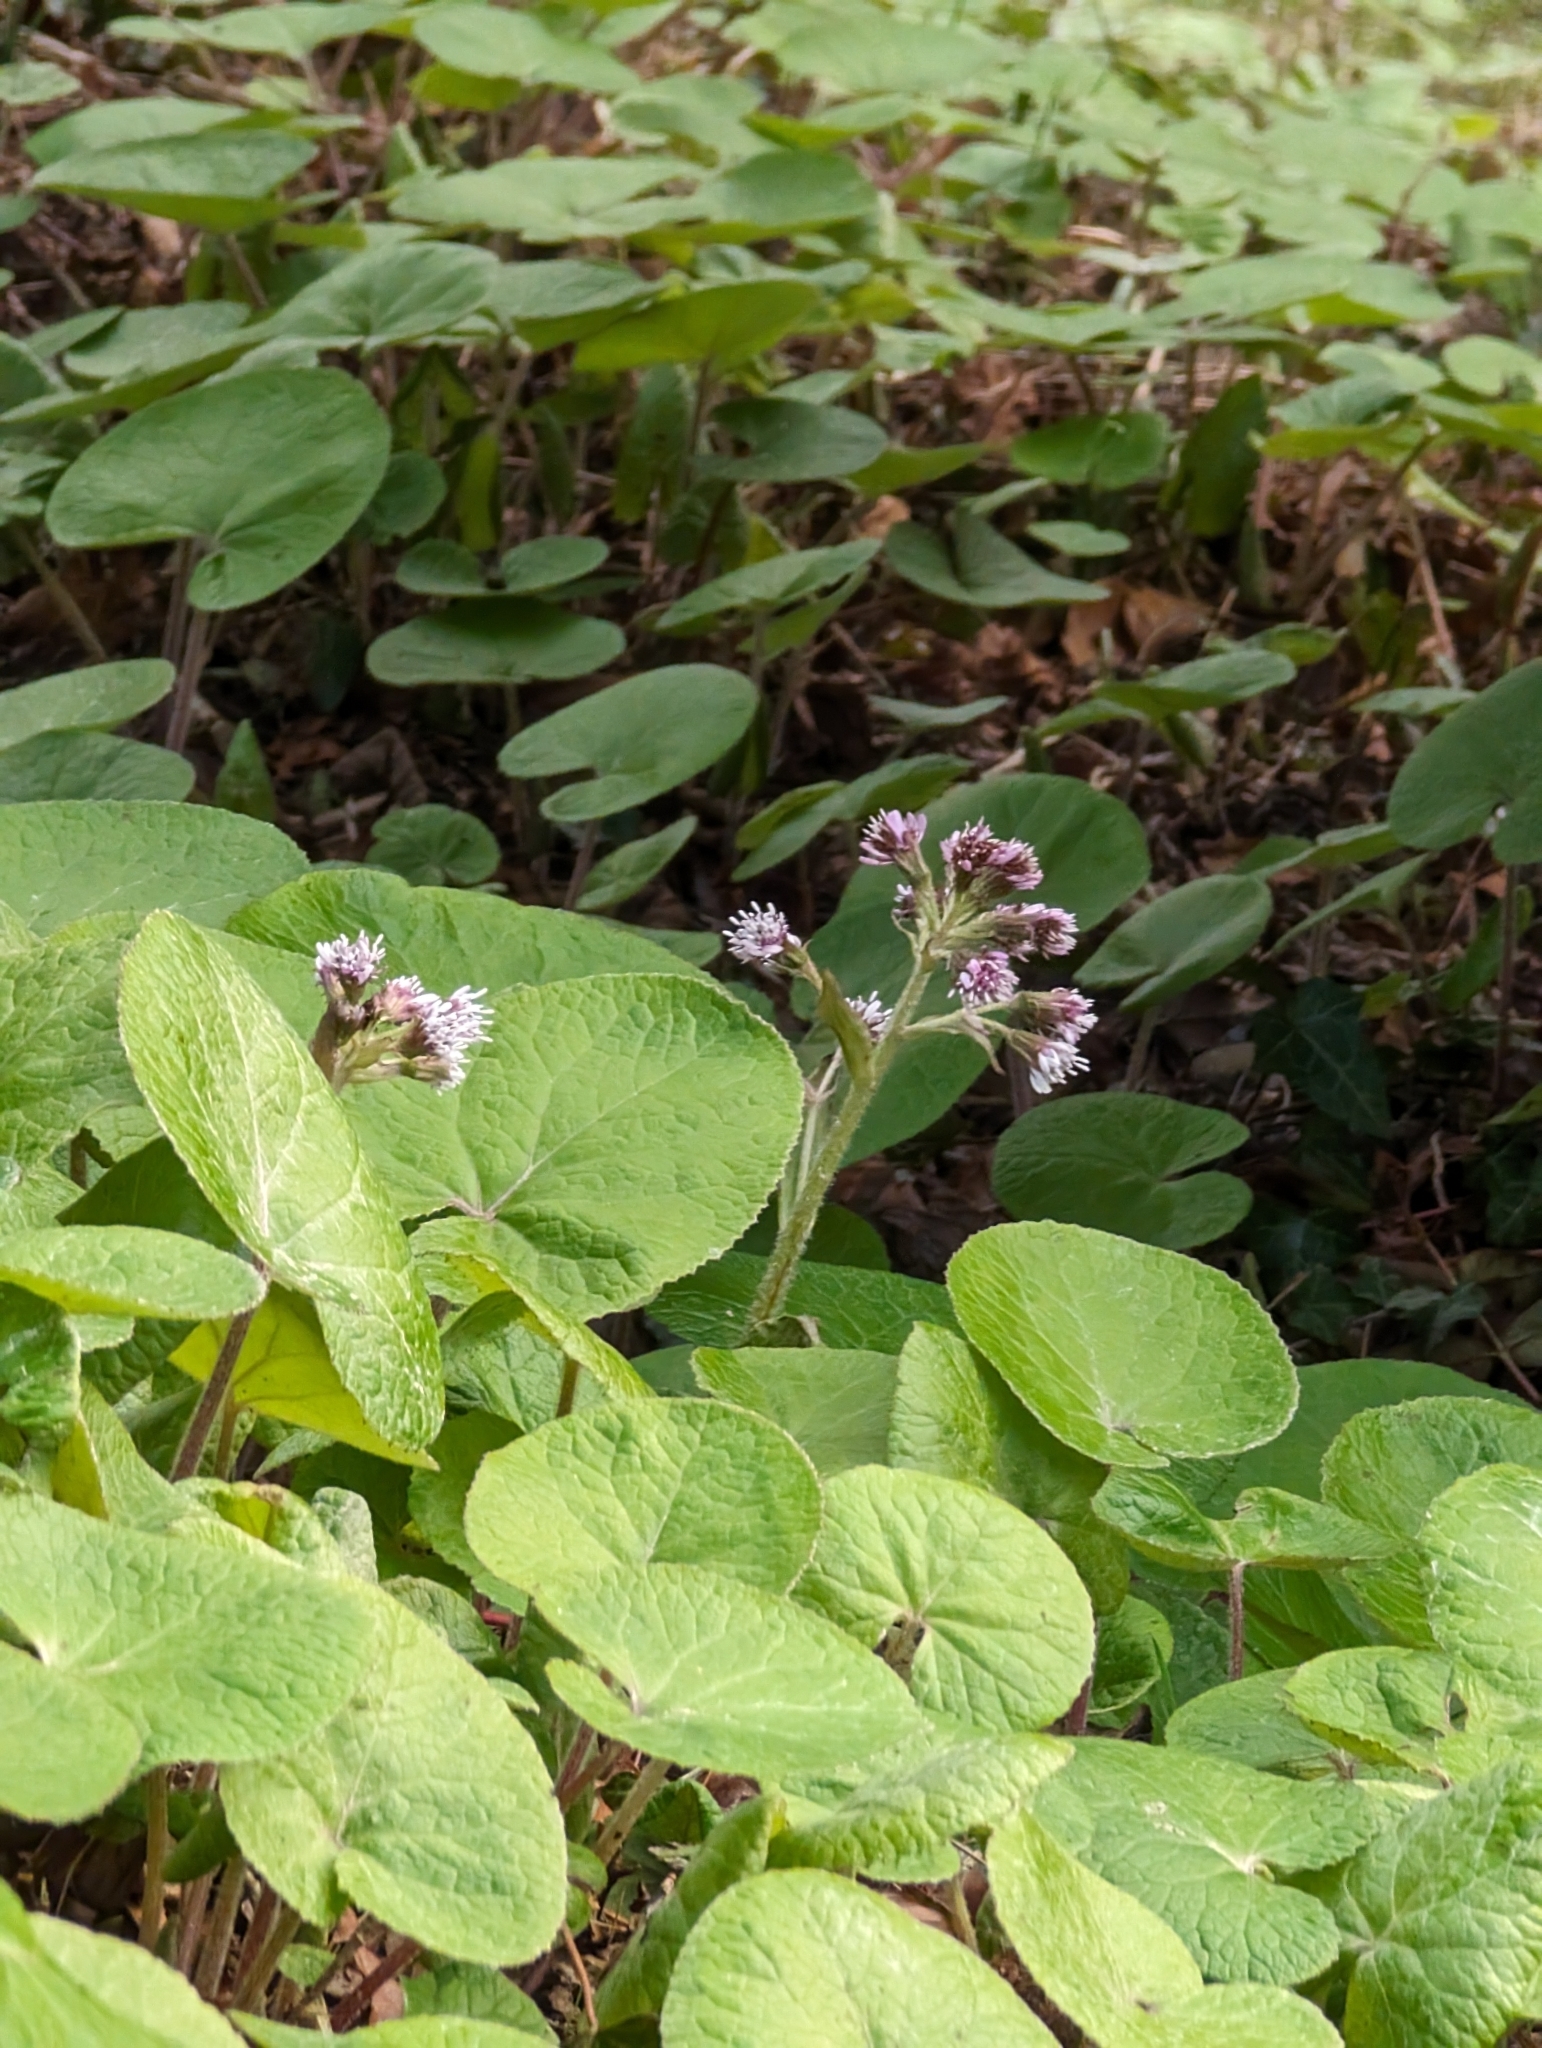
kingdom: Plantae
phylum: Tracheophyta
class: Magnoliopsida
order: Asterales
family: Asteraceae
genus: Petasites
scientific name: Petasites pyrenaicus
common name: Winter heliotrope
